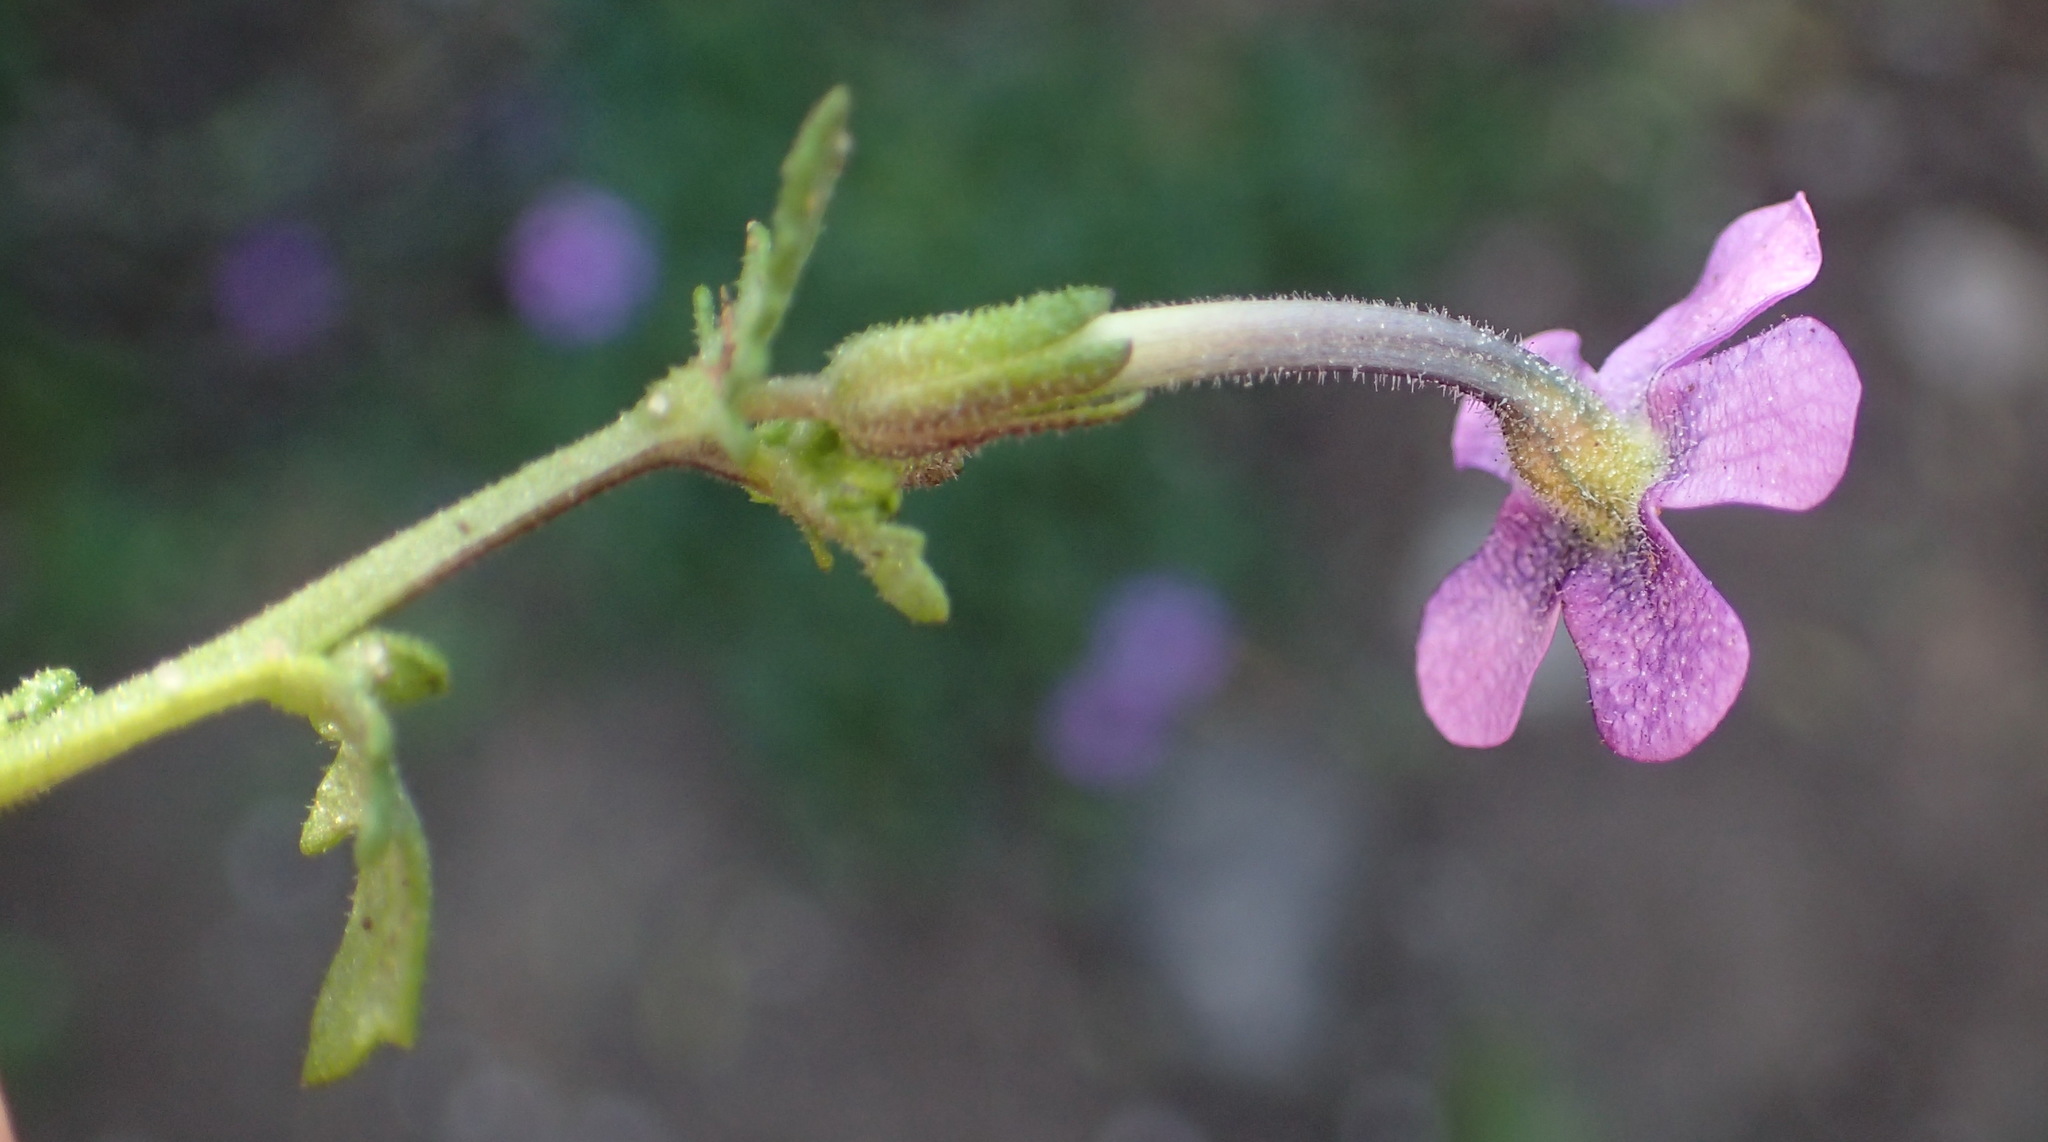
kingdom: Plantae
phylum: Tracheophyta
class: Magnoliopsida
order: Lamiales
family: Scrophulariaceae
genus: Lyperia
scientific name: Lyperia violacea
